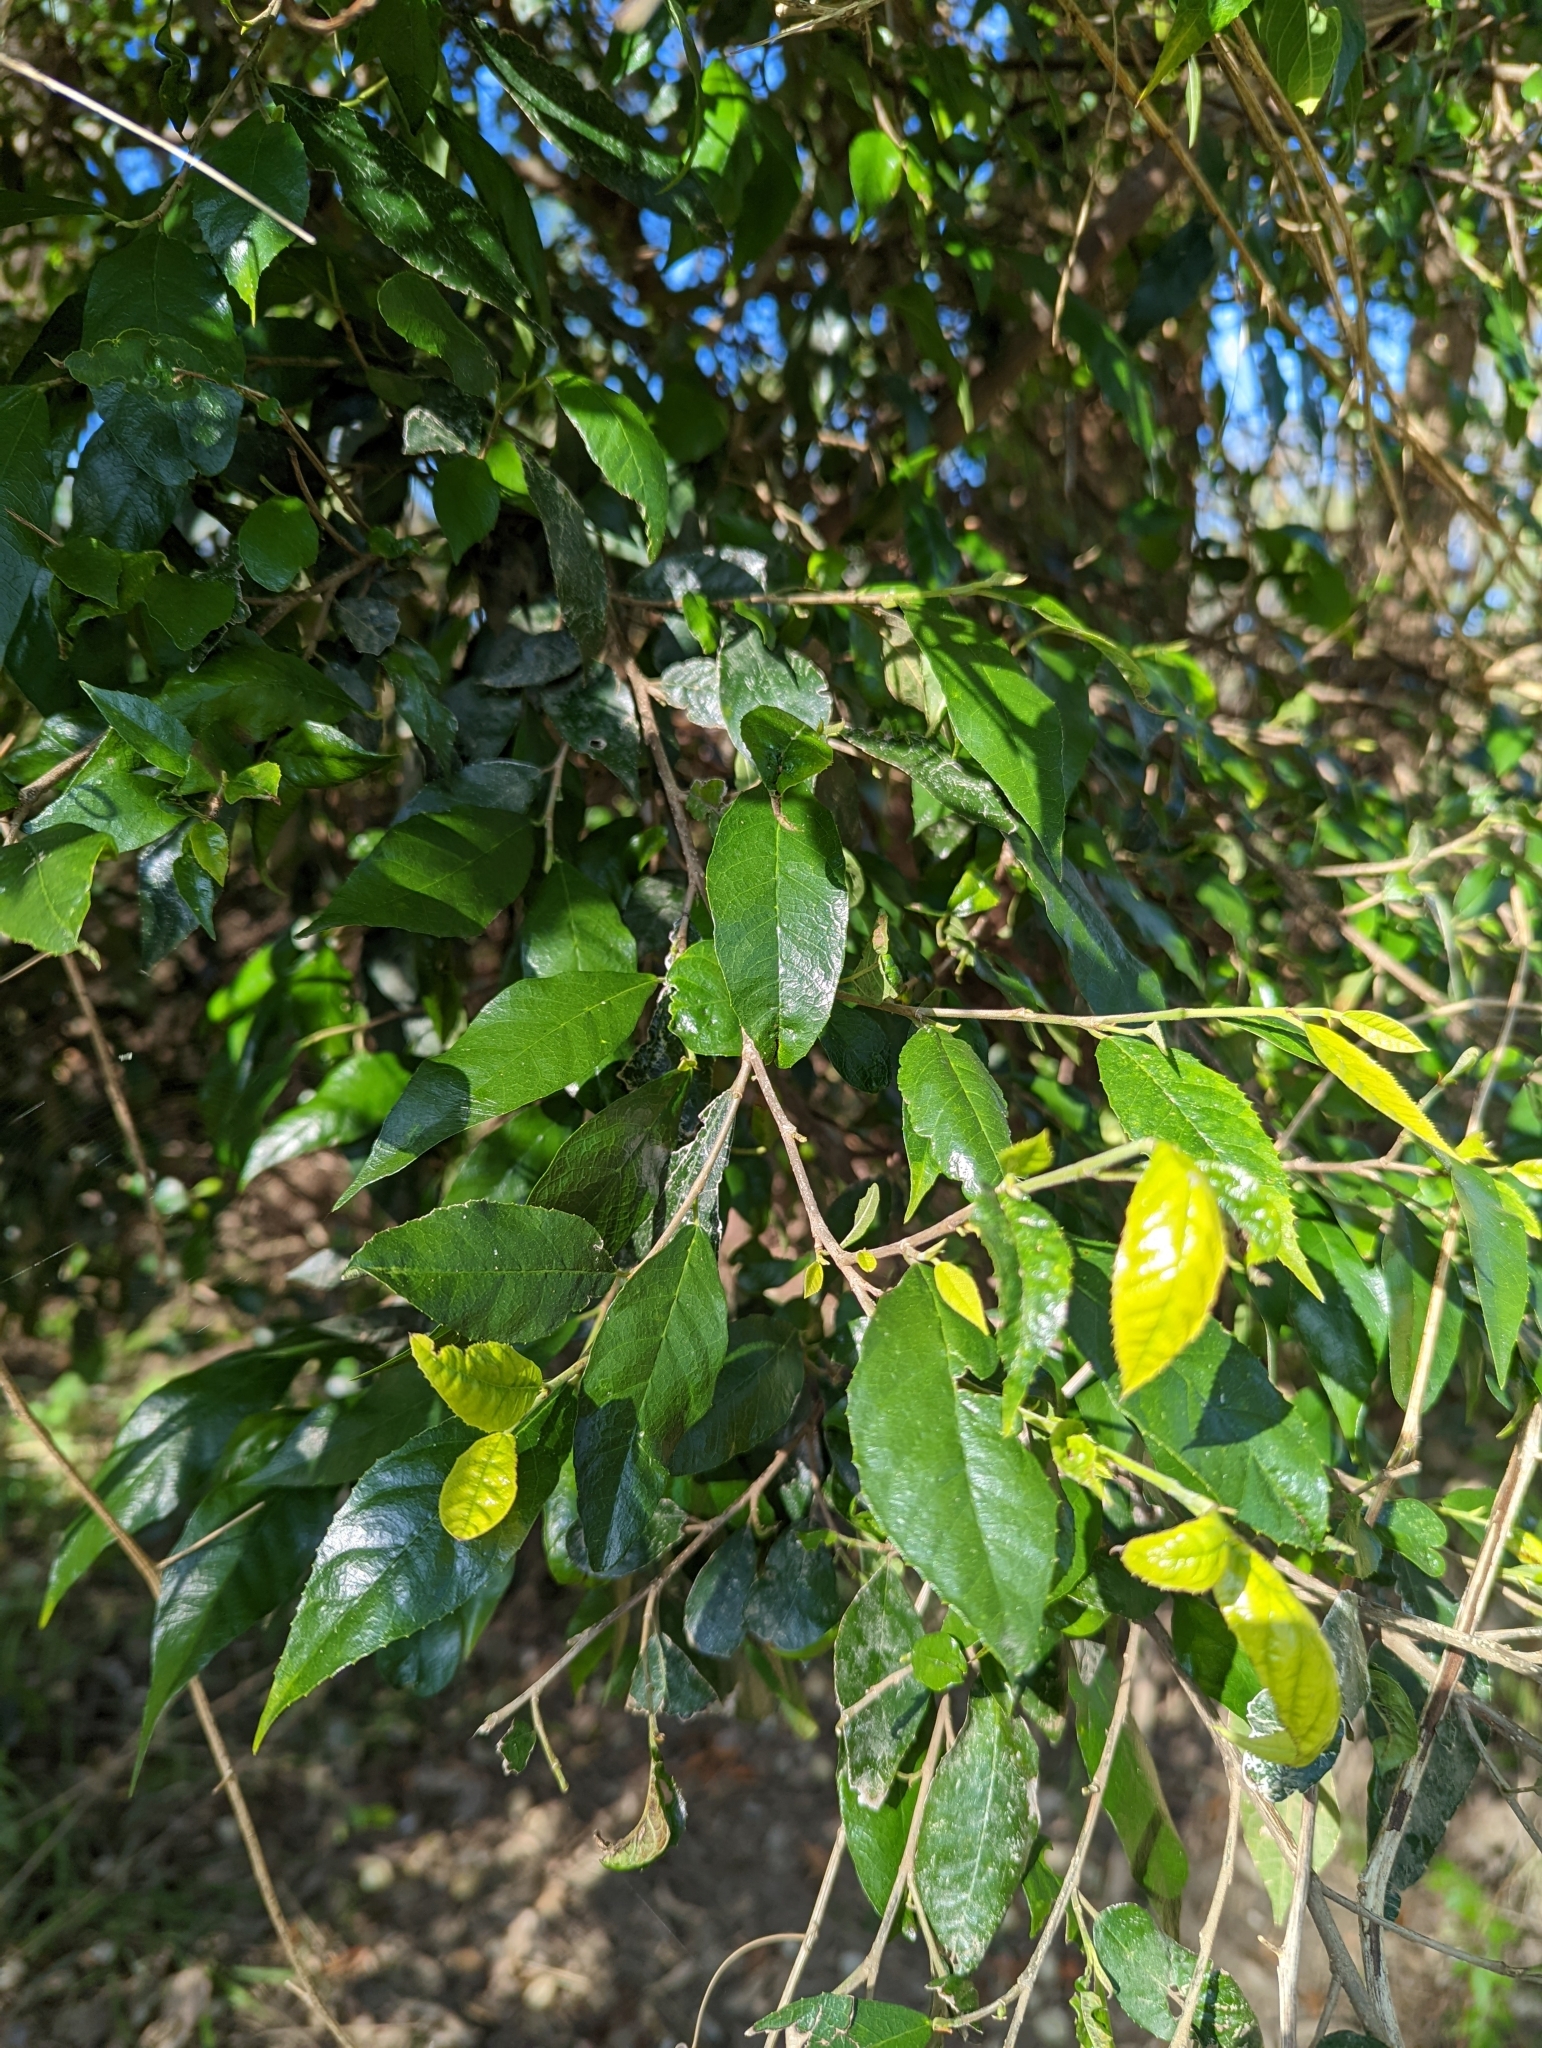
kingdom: Plantae
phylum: Tracheophyta
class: Magnoliopsida
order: Rosales
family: Moraceae
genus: Paratrophis
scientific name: Paratrophis pendulina
